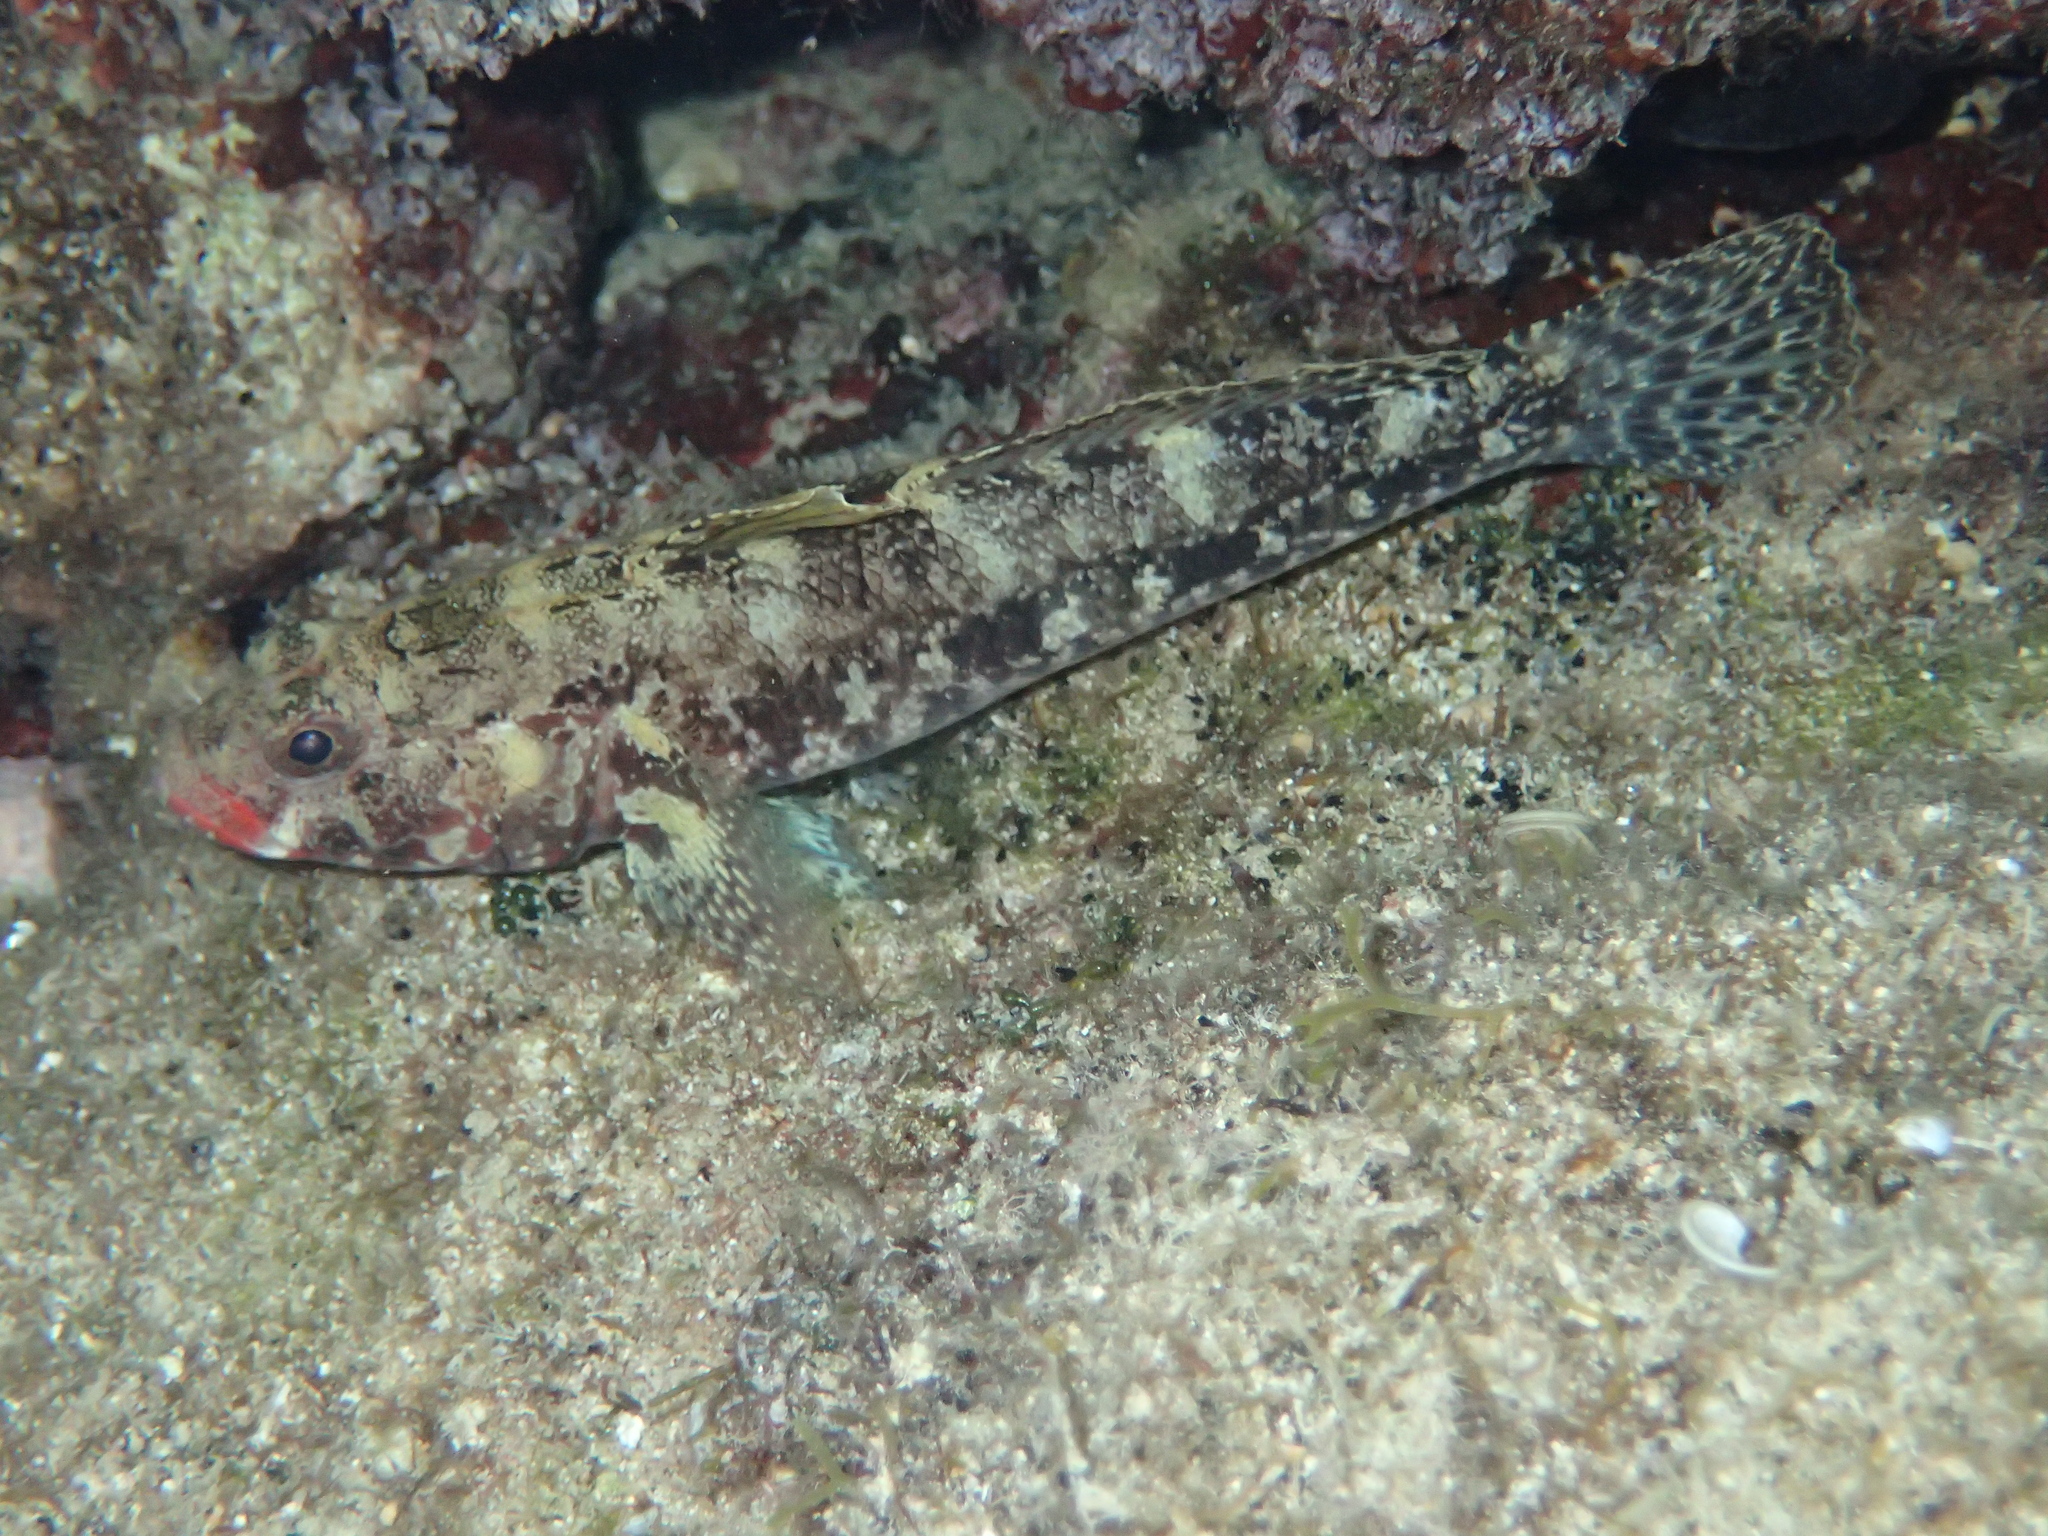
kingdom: Animalia
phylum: Chordata
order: Perciformes
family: Gobiidae
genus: Gobius
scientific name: Gobius cruentatus
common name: Red-mouthed goby
